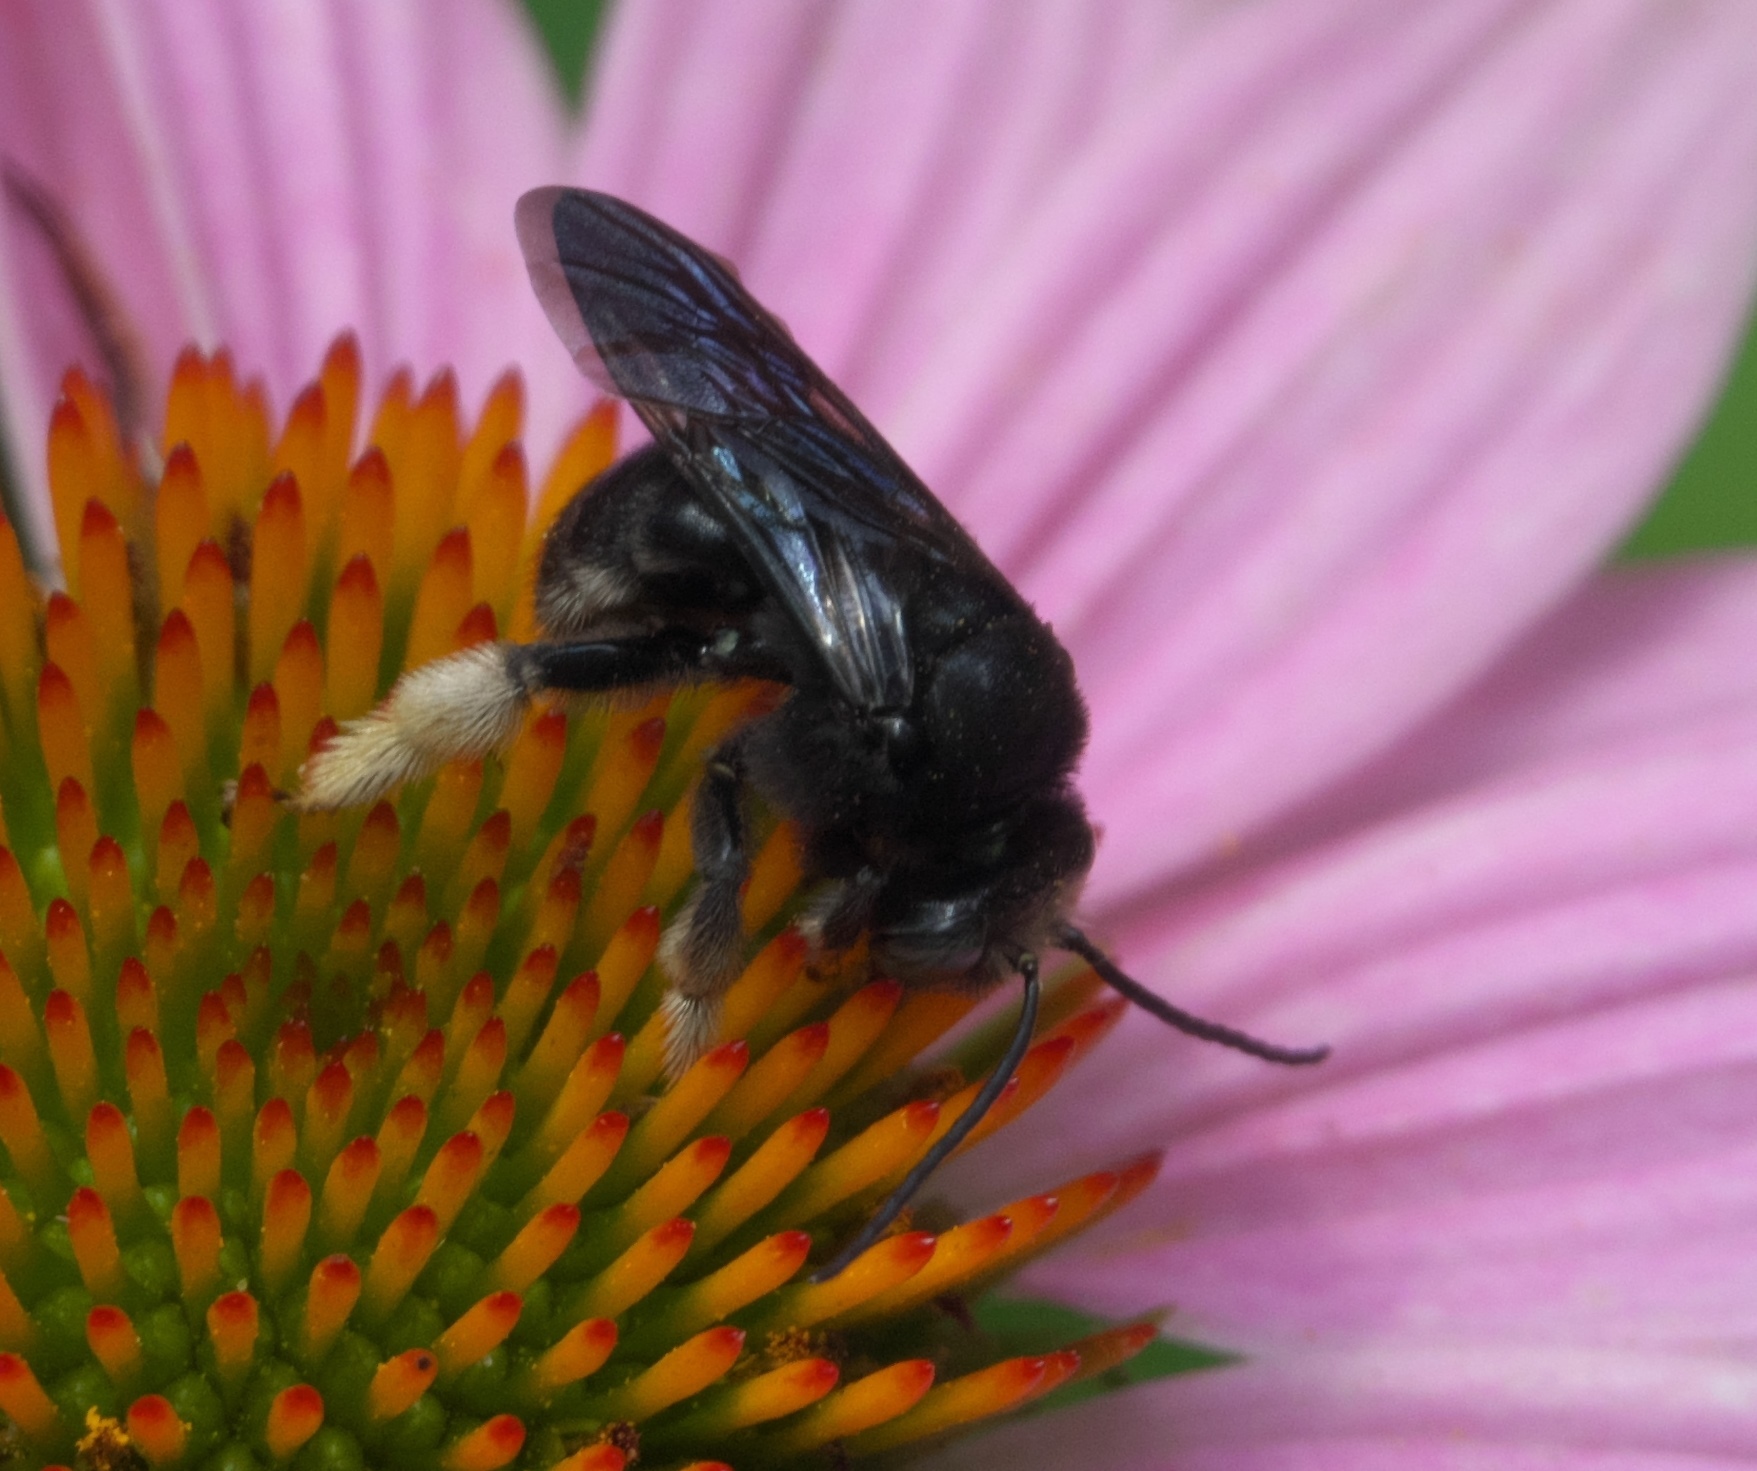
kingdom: Animalia
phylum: Arthropoda
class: Insecta
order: Hymenoptera
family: Apidae
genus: Melissodes
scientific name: Melissodes bimaculatus
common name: Two-spotted long-horned bee
